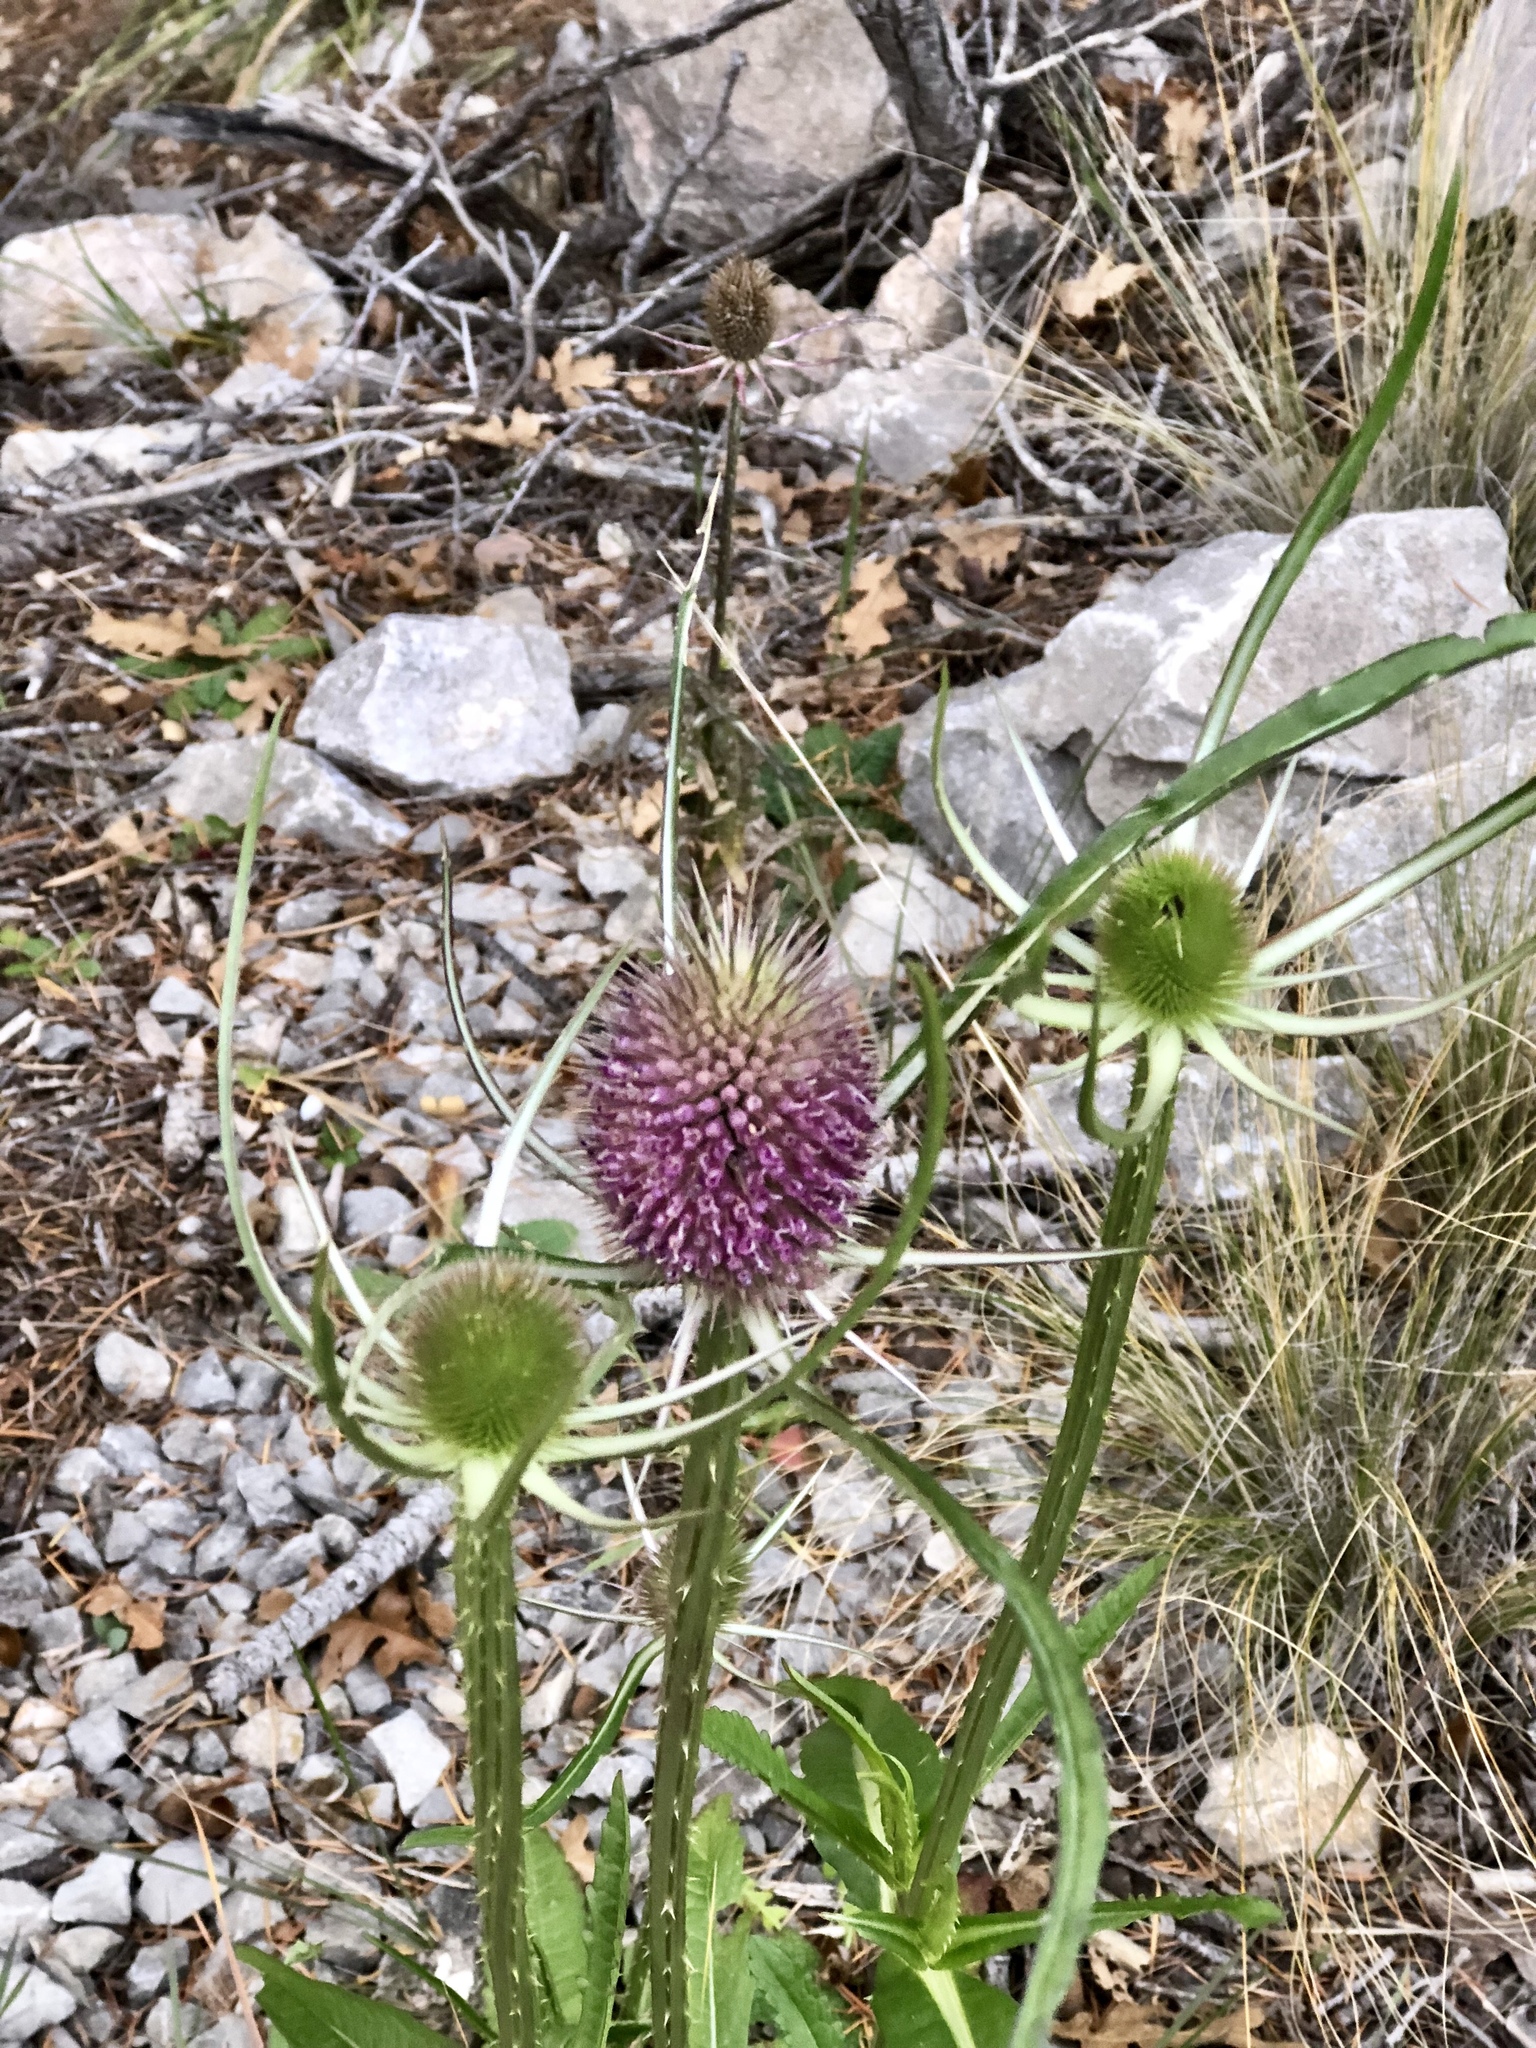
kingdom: Plantae
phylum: Tracheophyta
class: Magnoliopsida
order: Dipsacales
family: Caprifoliaceae
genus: Dipsacus
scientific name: Dipsacus fullonum
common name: Teasel
